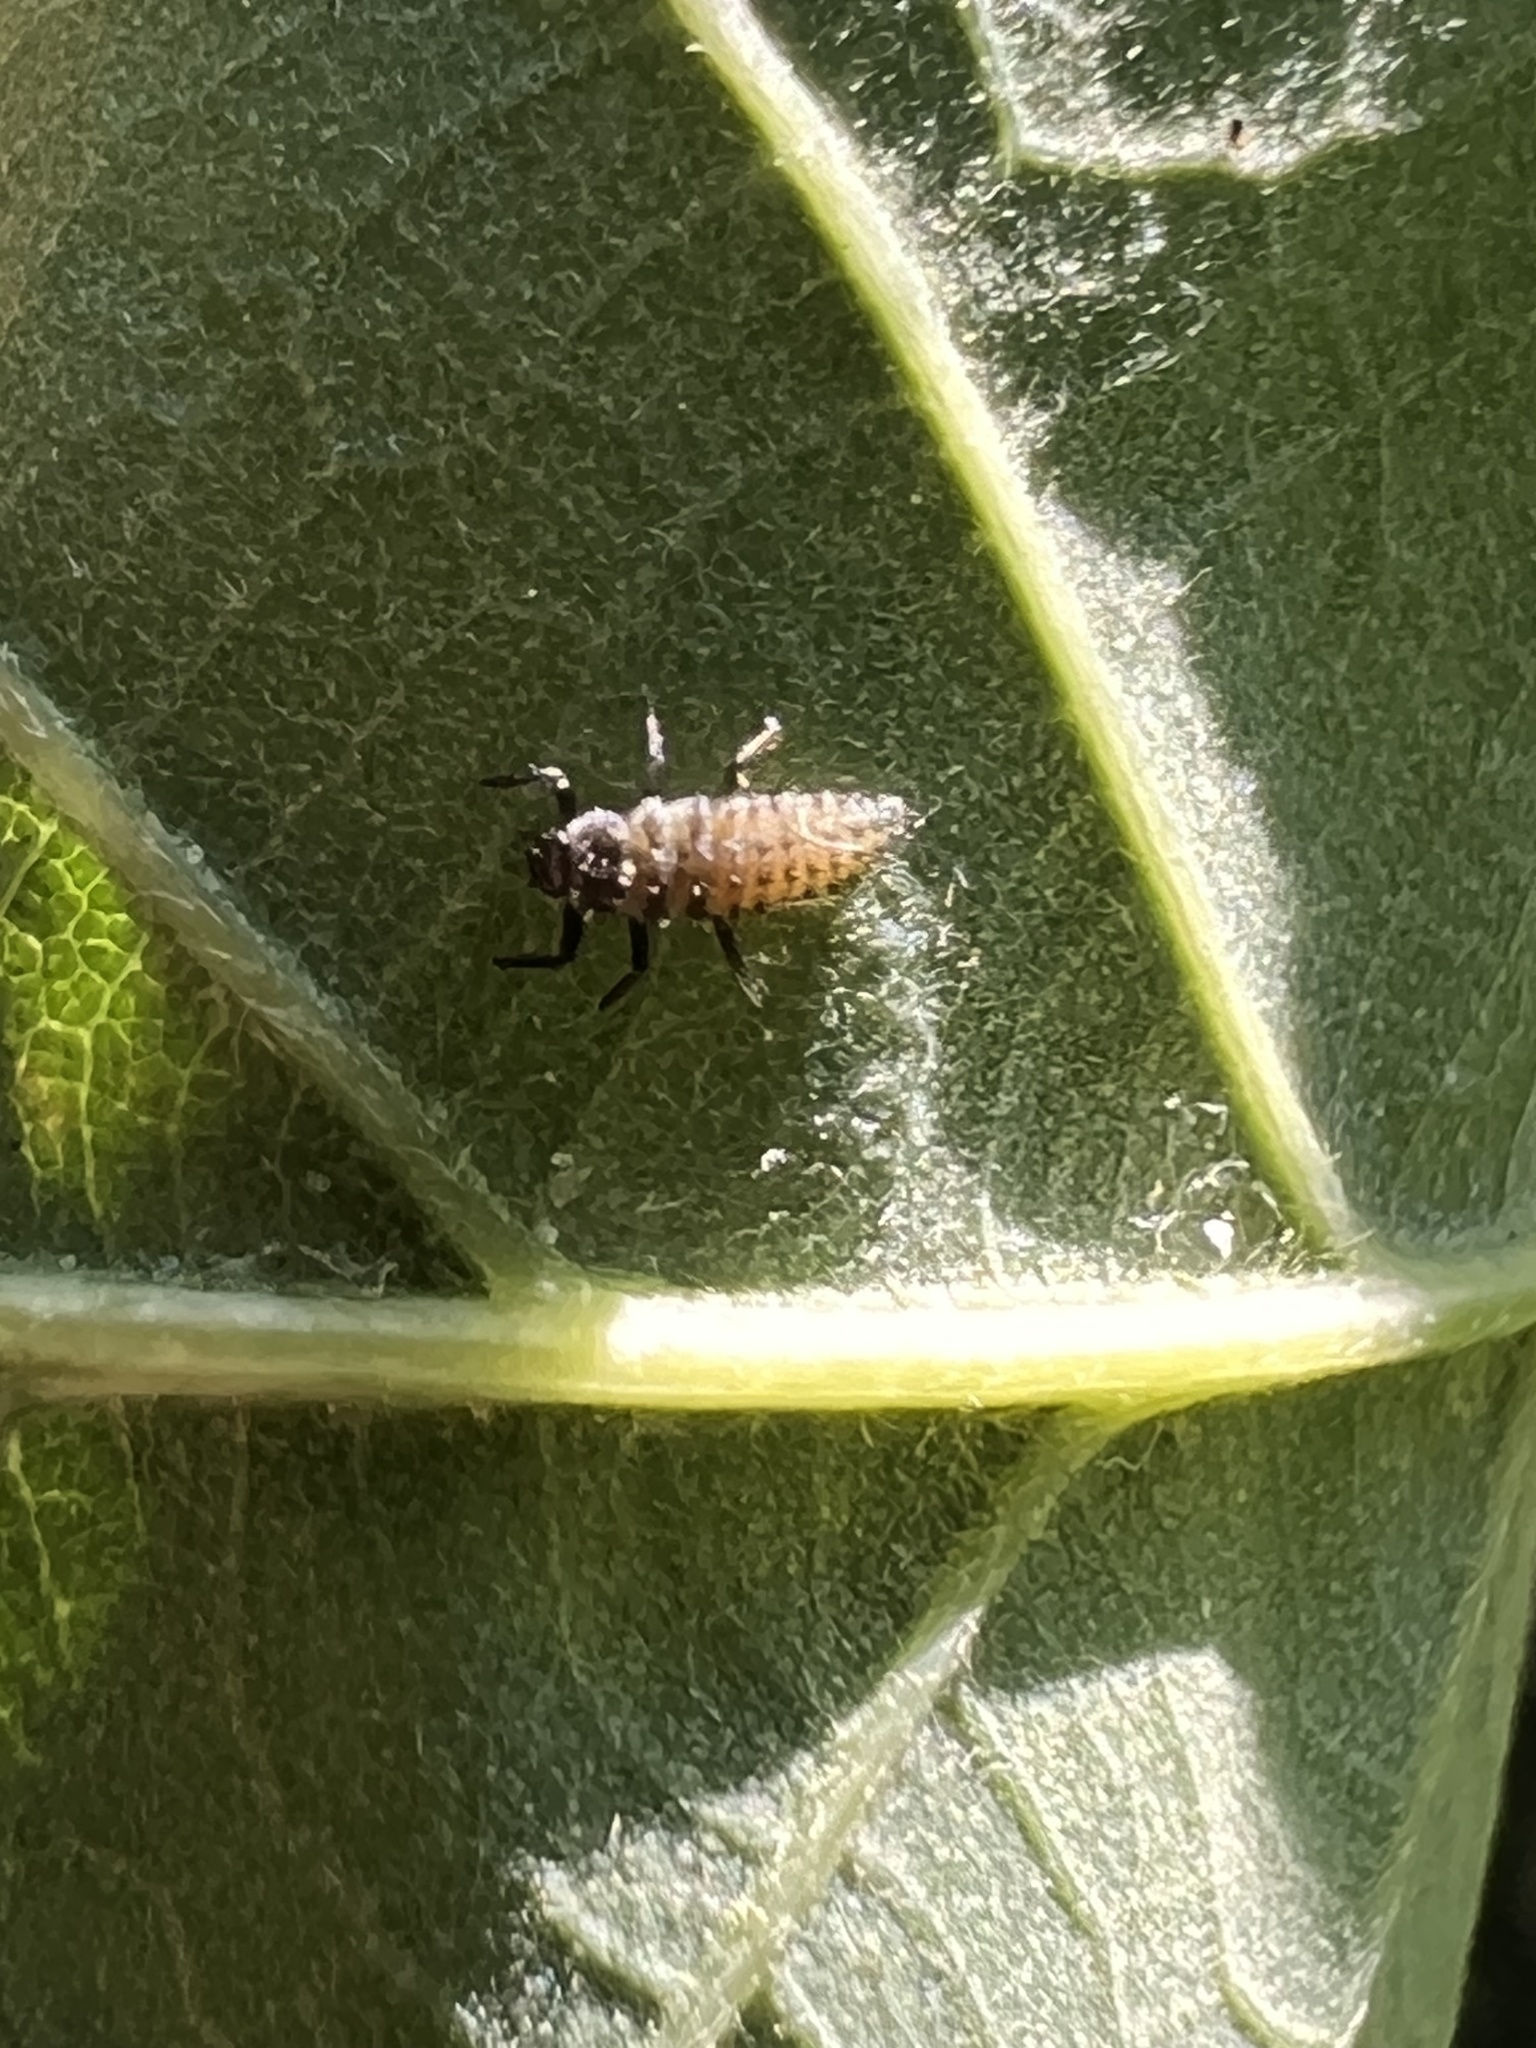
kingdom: Animalia
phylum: Arthropoda
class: Insecta
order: Coleoptera
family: Coccinellidae
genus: Harmonia
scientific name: Harmonia axyridis
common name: Harlequin ladybird
